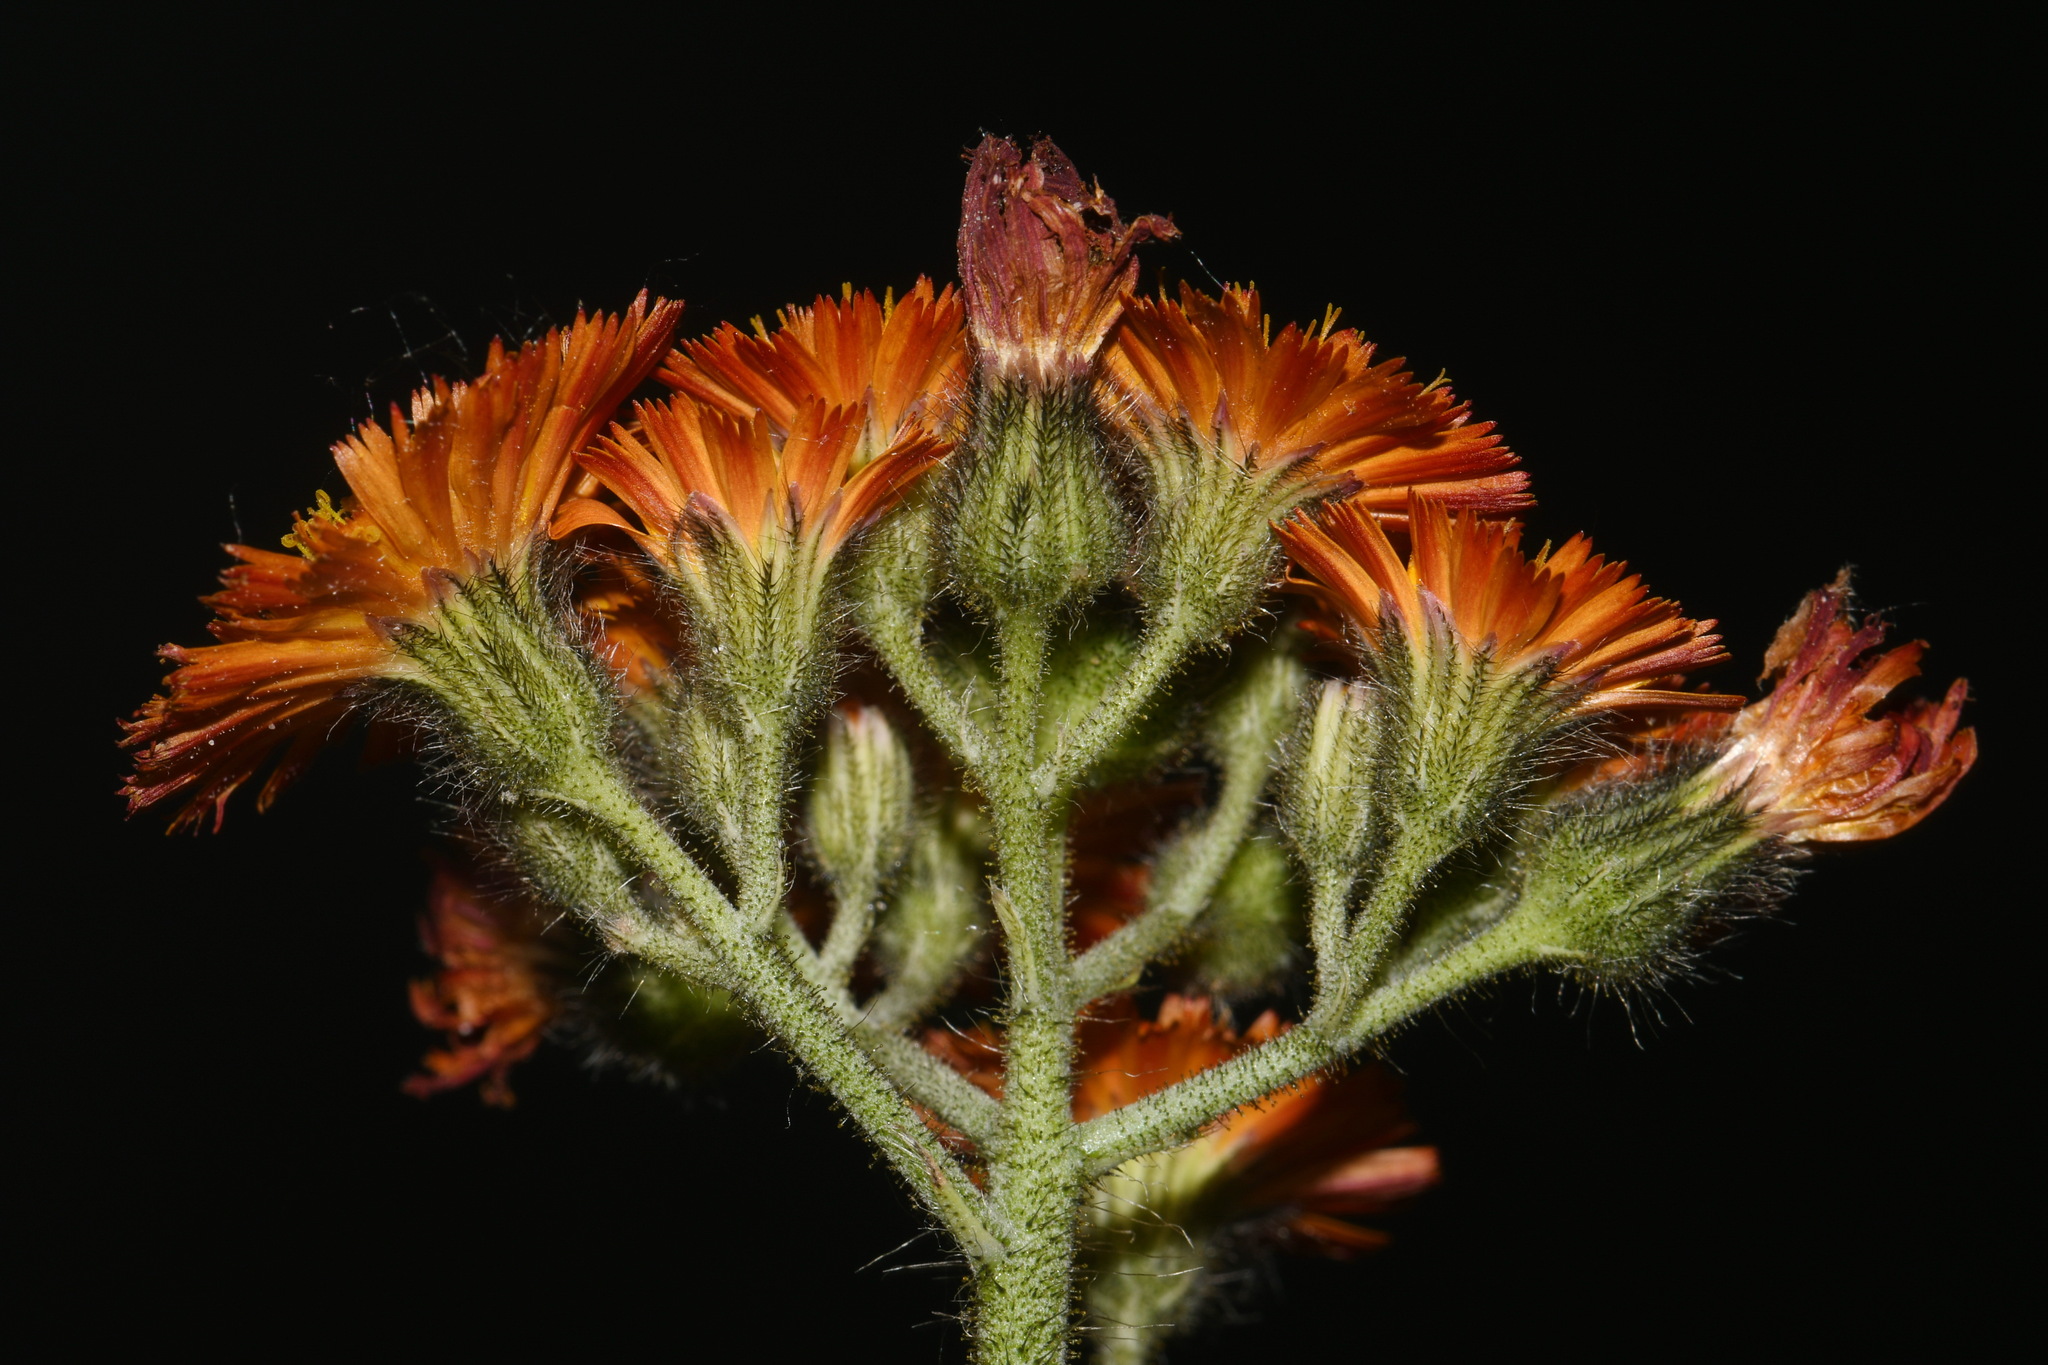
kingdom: Plantae
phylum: Tracheophyta
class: Magnoliopsida
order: Asterales
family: Asteraceae
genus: Pilosella
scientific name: Pilosella aurantiaca
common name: Fox-and-cubs
